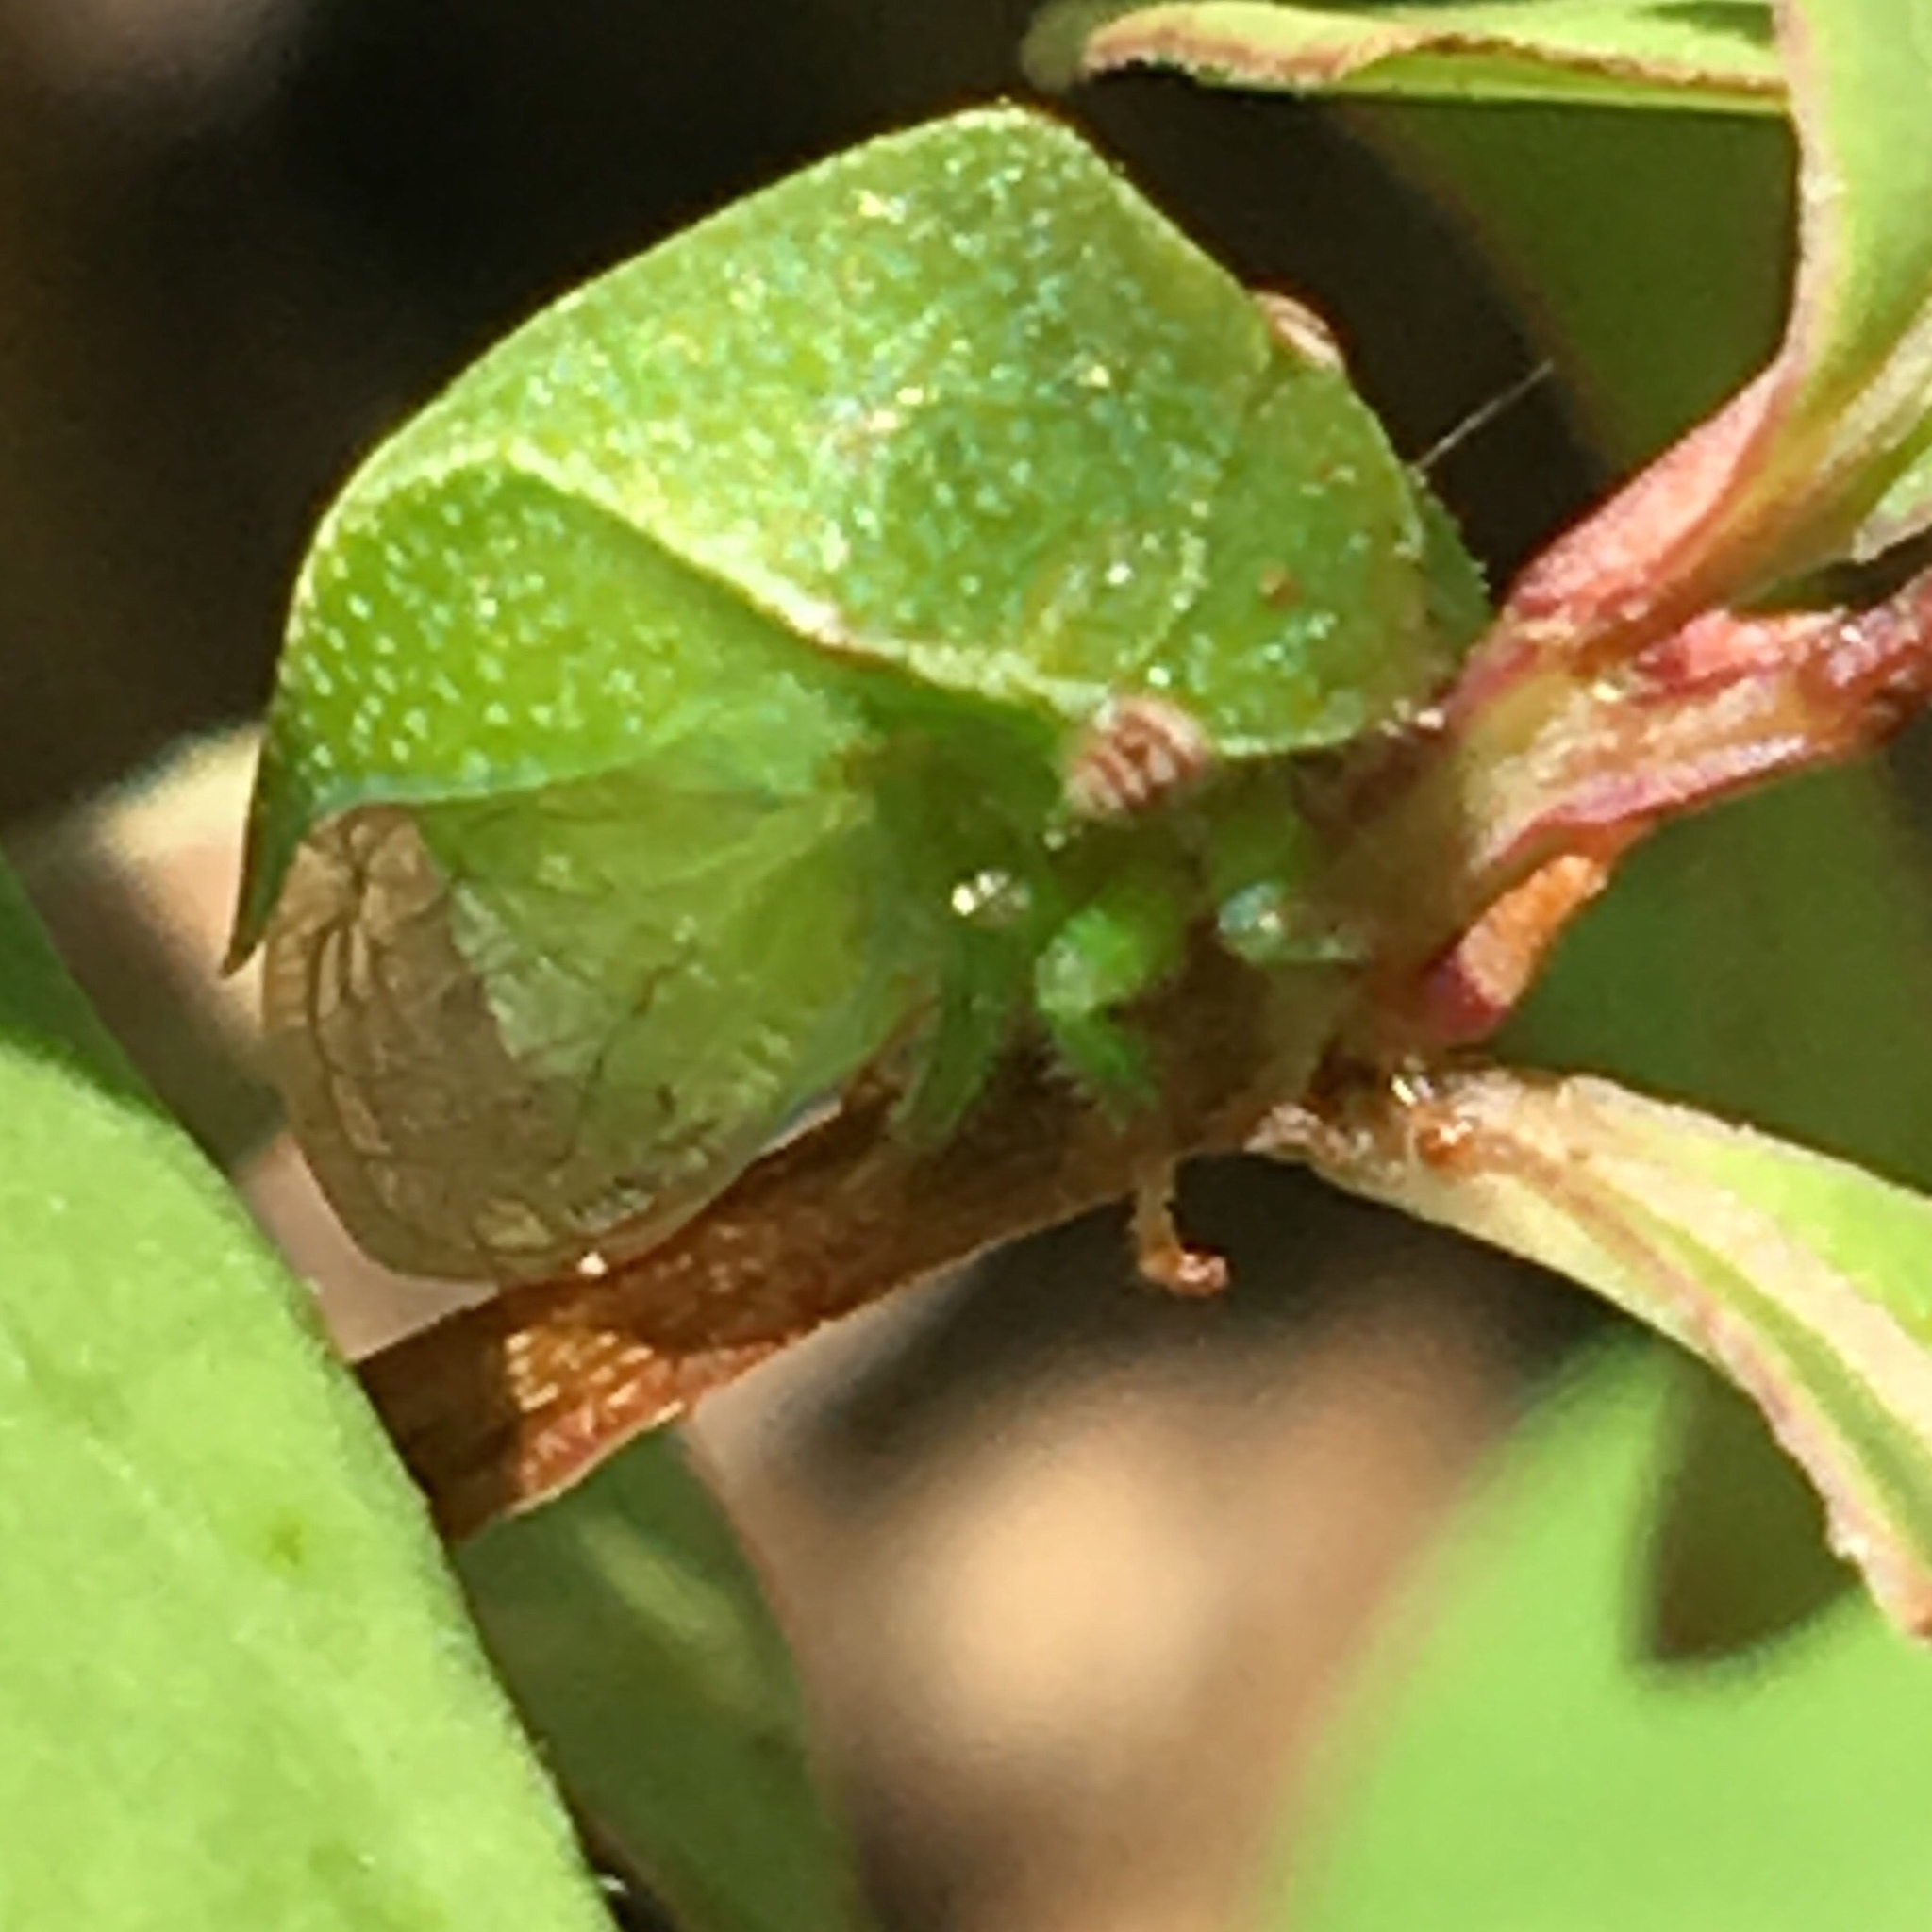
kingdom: Animalia
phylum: Arthropoda
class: Insecta
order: Hemiptera
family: Membracidae
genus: Spissistilus
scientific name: Spissistilus festina
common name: Membracid bug
